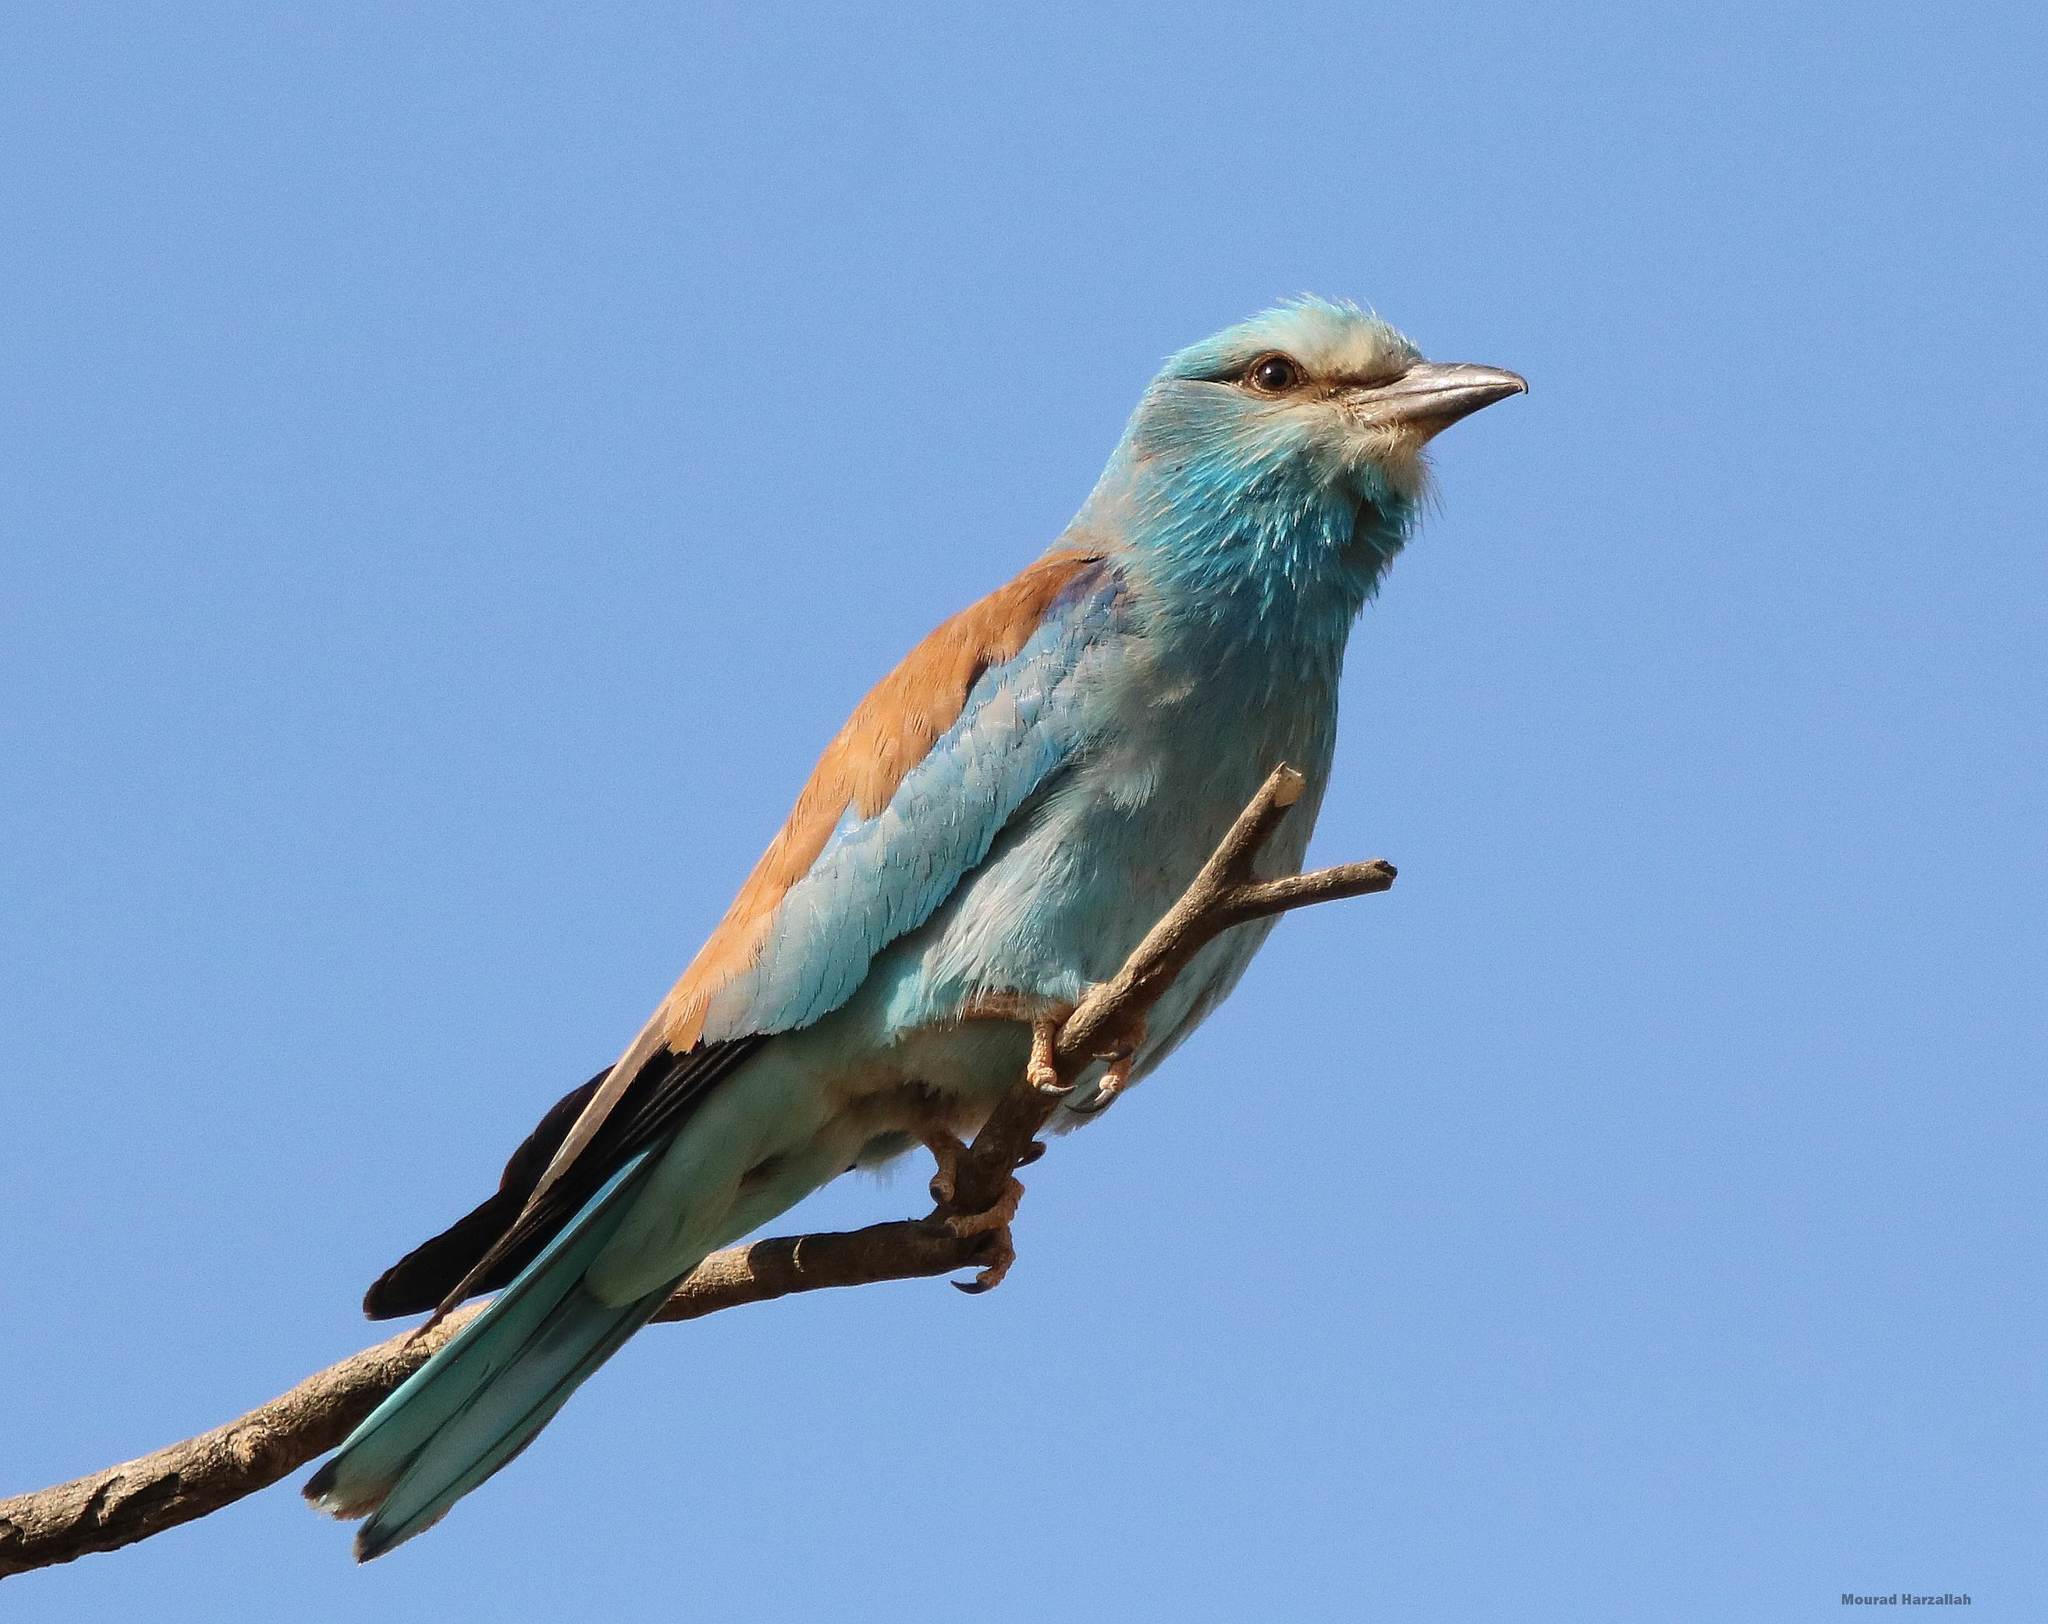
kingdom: Animalia
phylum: Chordata
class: Aves
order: Coraciiformes
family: Coraciidae
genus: Coracias
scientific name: Coracias garrulus
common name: European roller
